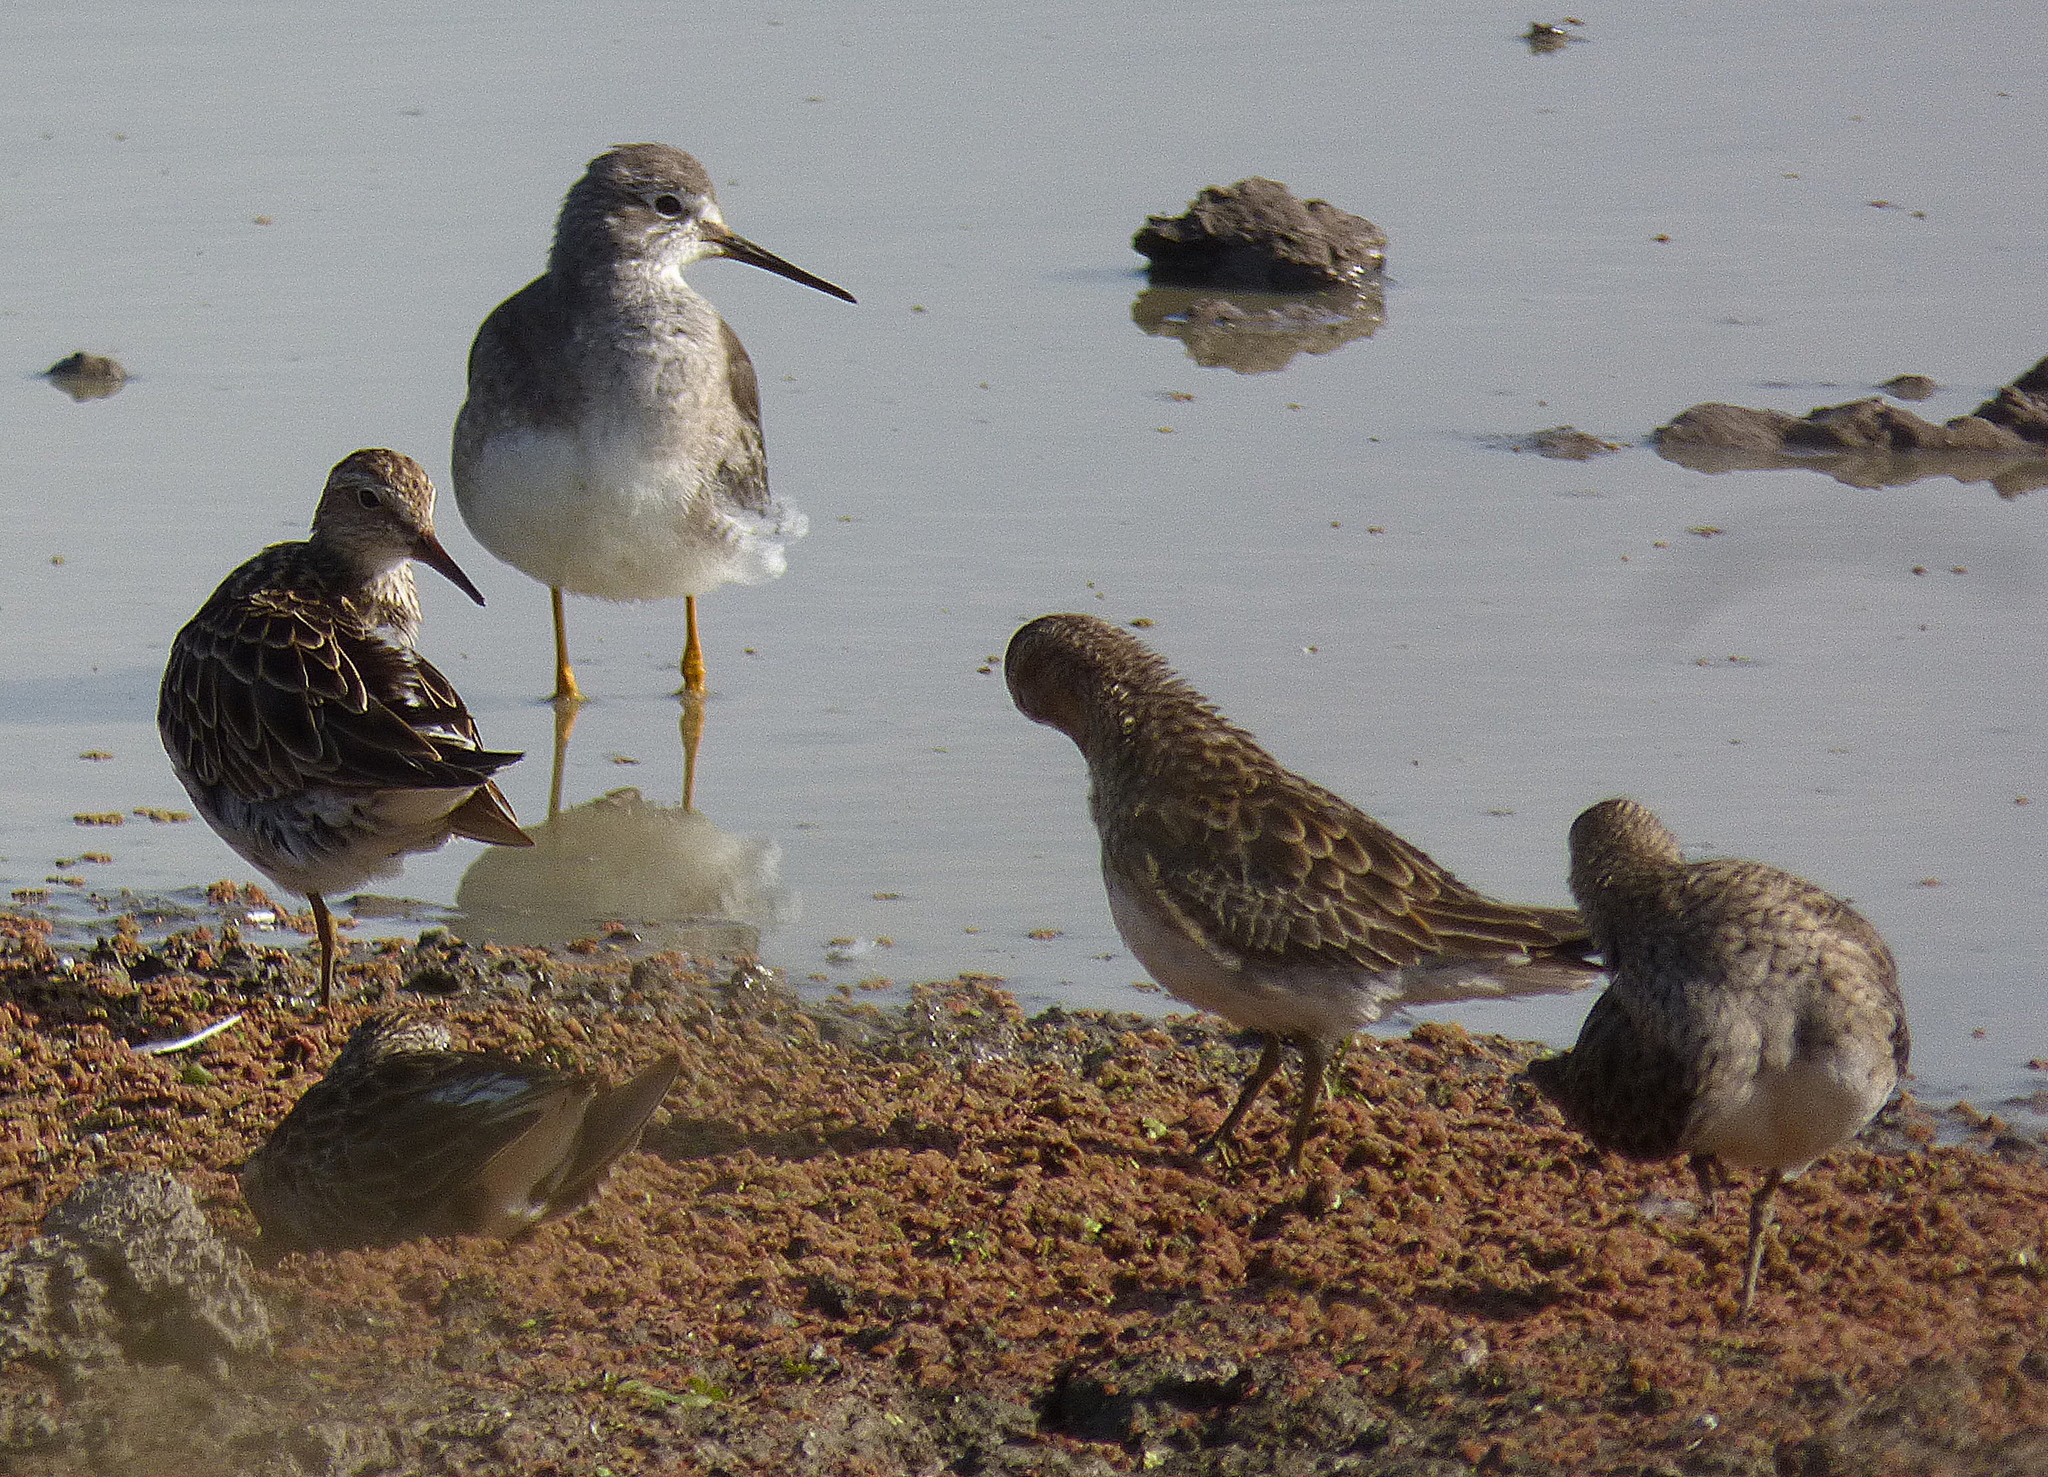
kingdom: Animalia
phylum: Chordata
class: Aves
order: Charadriiformes
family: Scolopacidae
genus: Tringa
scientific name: Tringa flavipes
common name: Lesser yellowlegs
